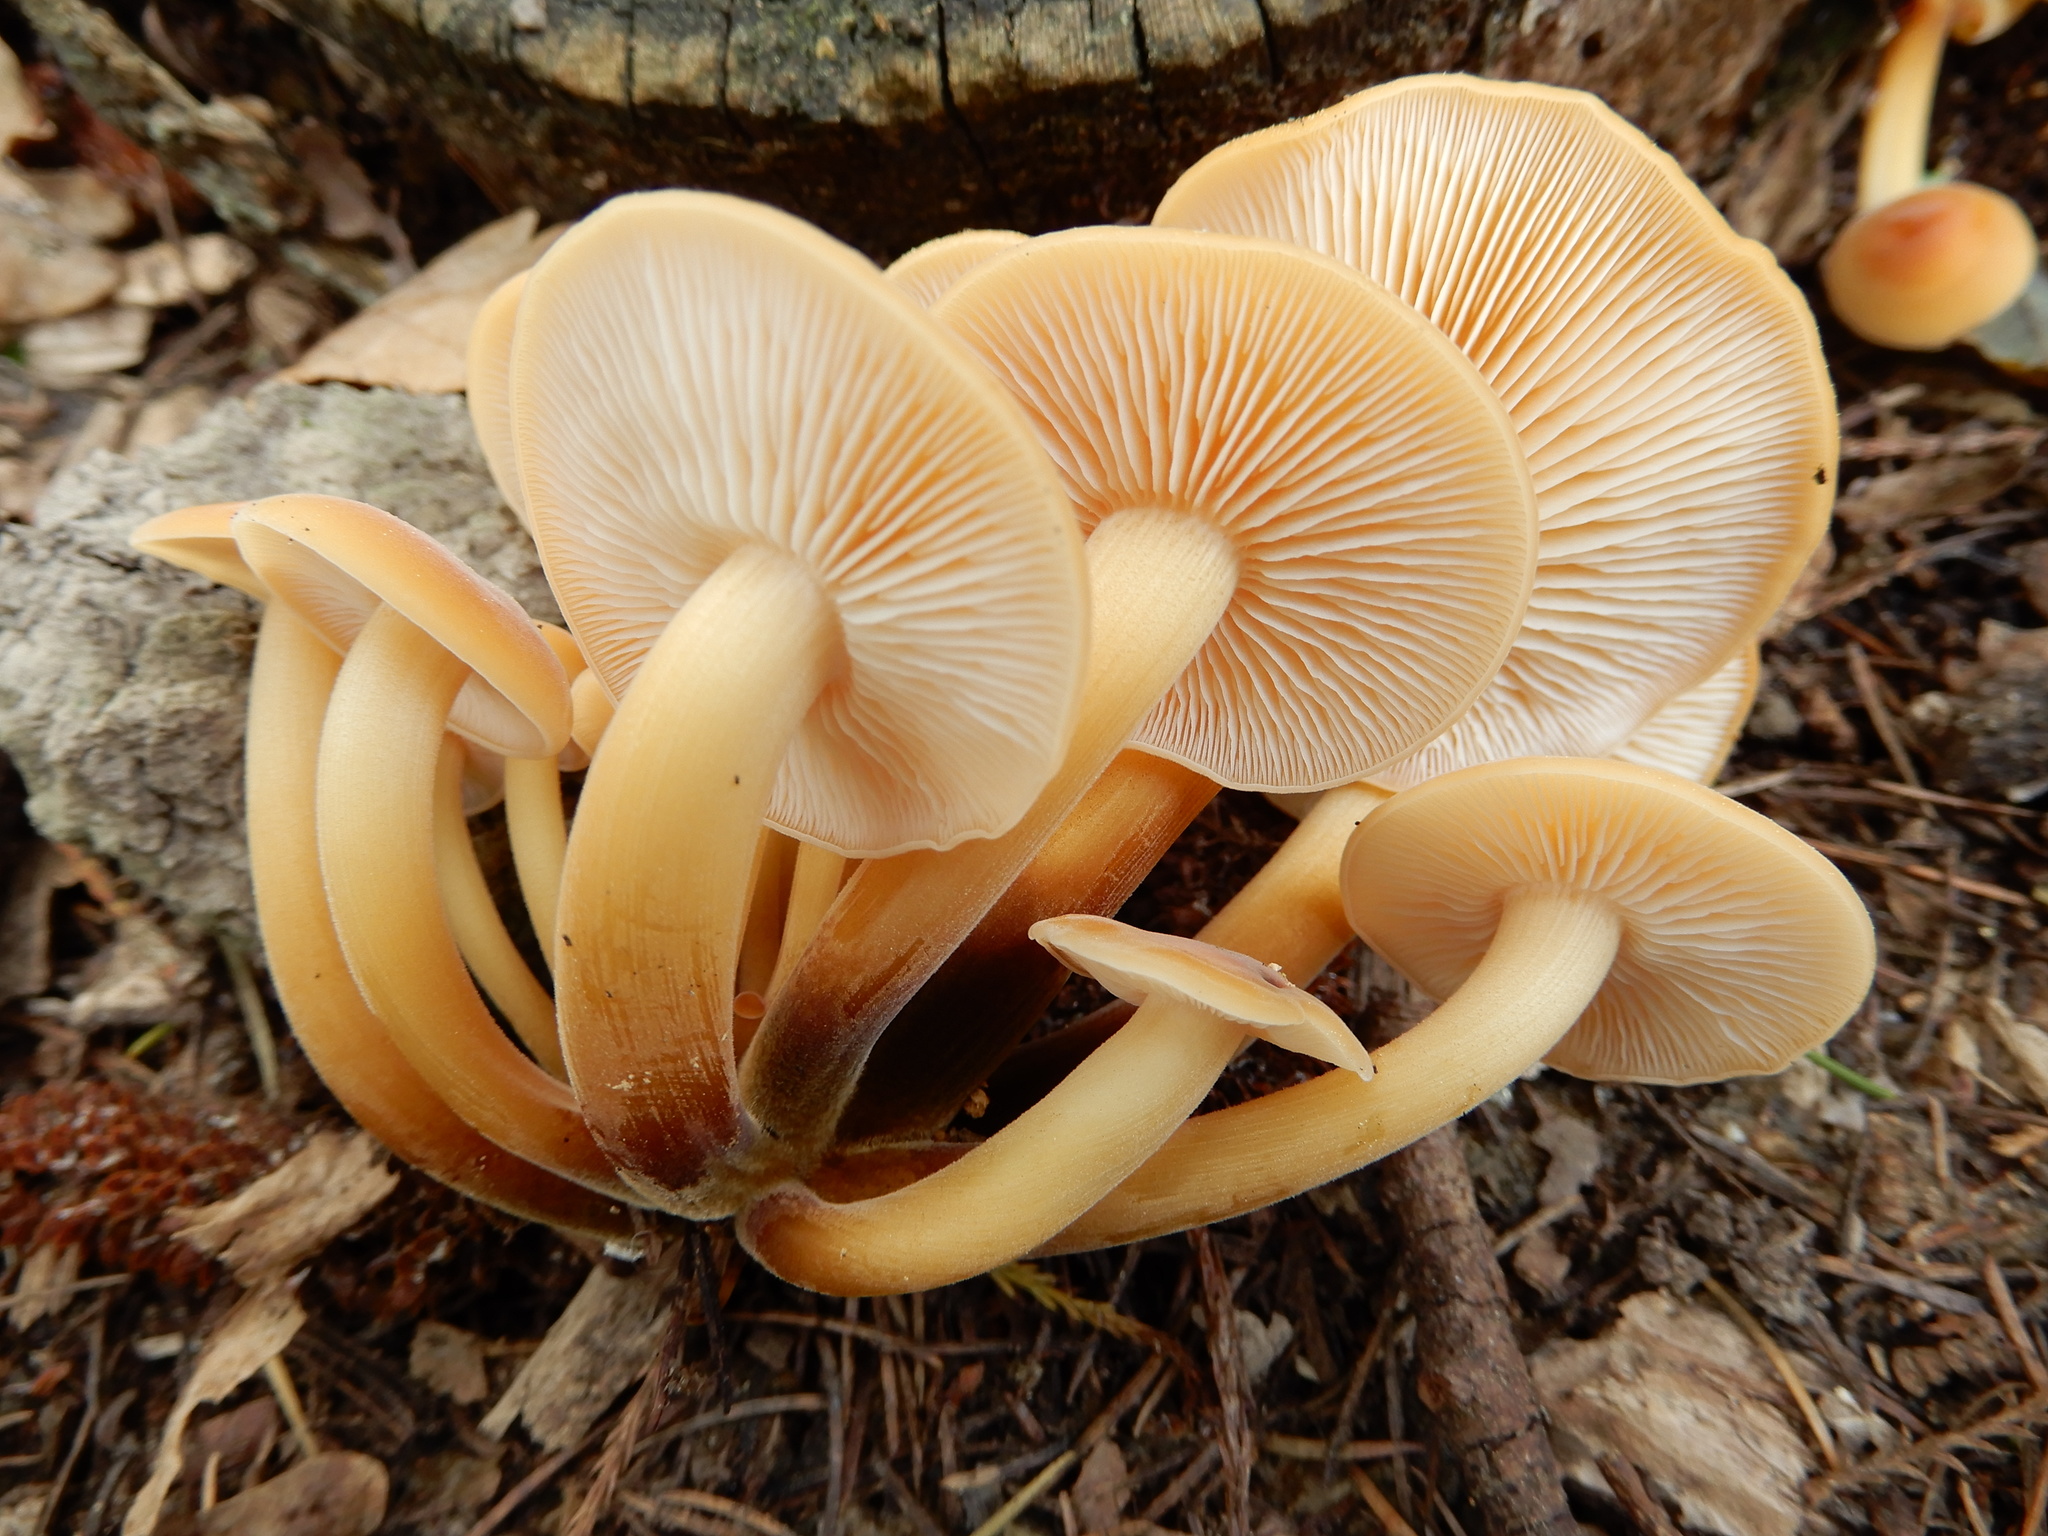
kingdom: Fungi
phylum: Basidiomycota
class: Agaricomycetes
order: Agaricales
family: Physalacriaceae
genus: Flammulina
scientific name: Flammulina velutipes
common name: Velvet shank
